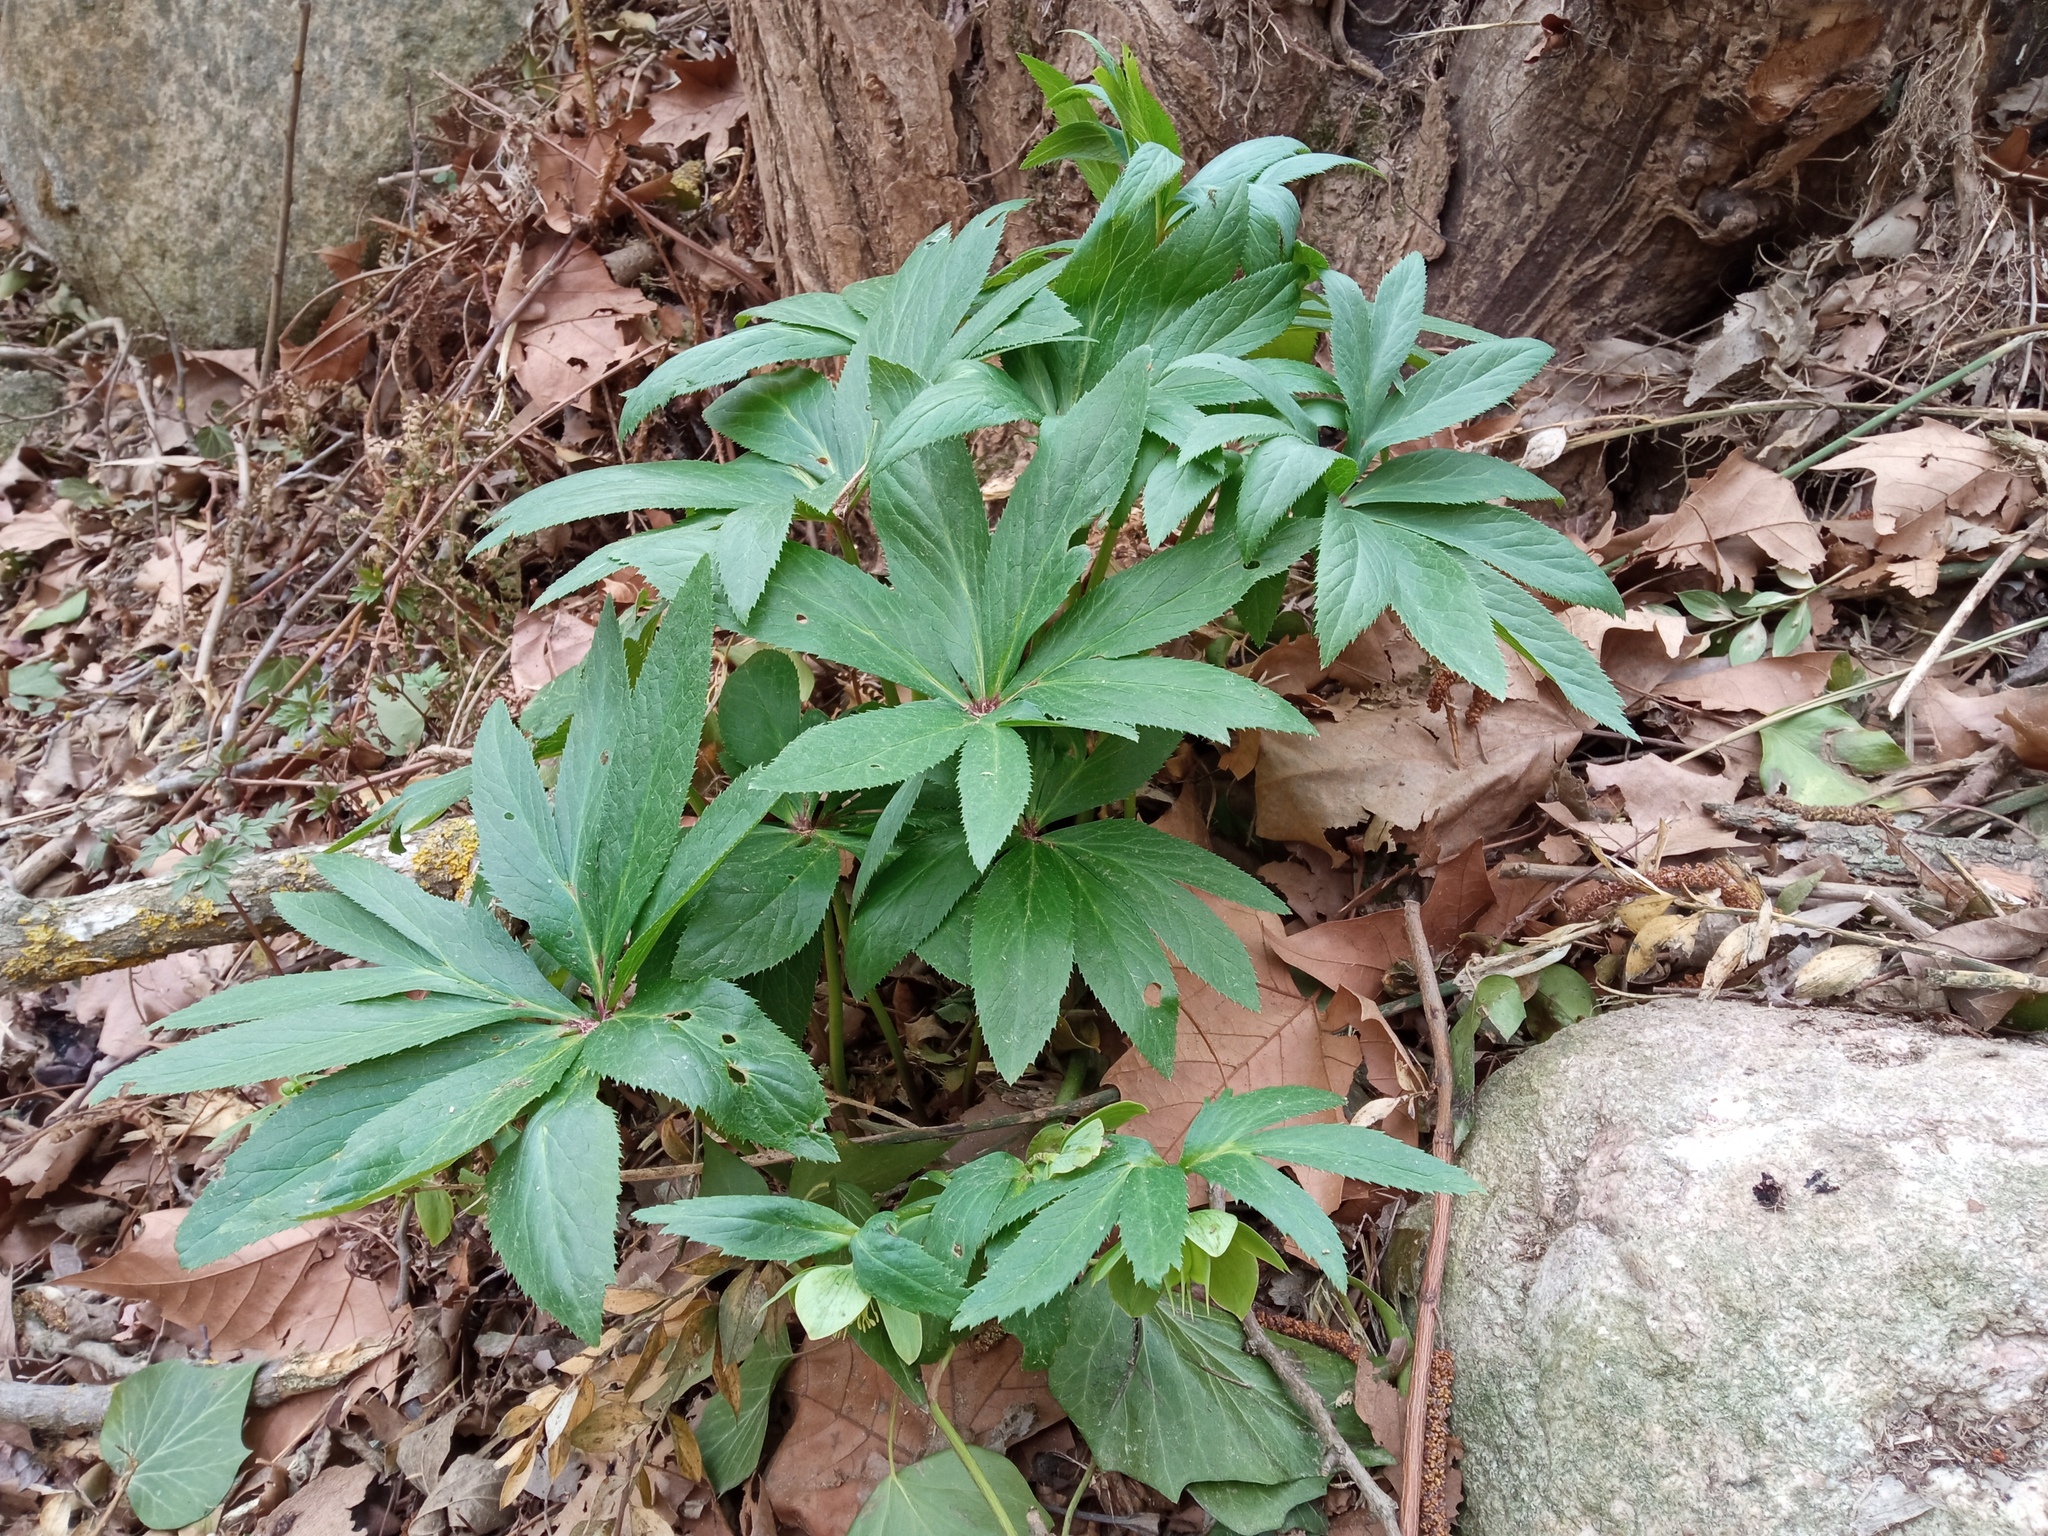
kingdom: Plantae
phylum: Tracheophyta
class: Magnoliopsida
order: Ranunculales
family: Ranunculaceae
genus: Helleborus
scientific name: Helleborus viridis
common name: Green hellebore
